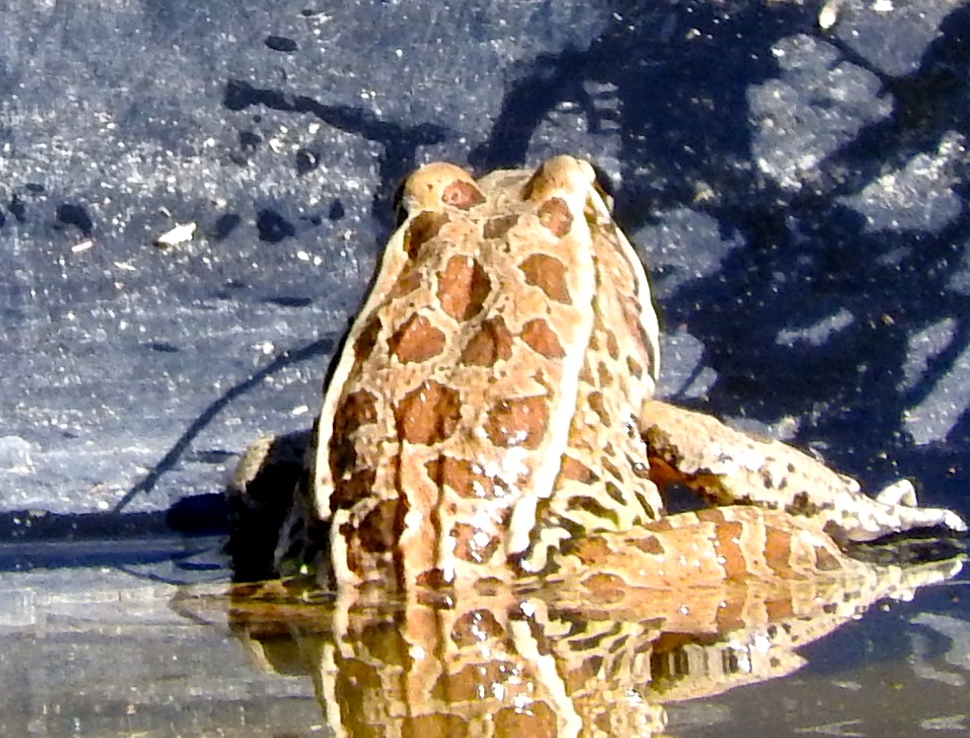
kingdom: Animalia
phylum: Chordata
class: Amphibia
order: Anura
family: Ranidae
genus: Lithobates
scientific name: Lithobates magnaocularis
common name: Northwest mexico leopard frog
